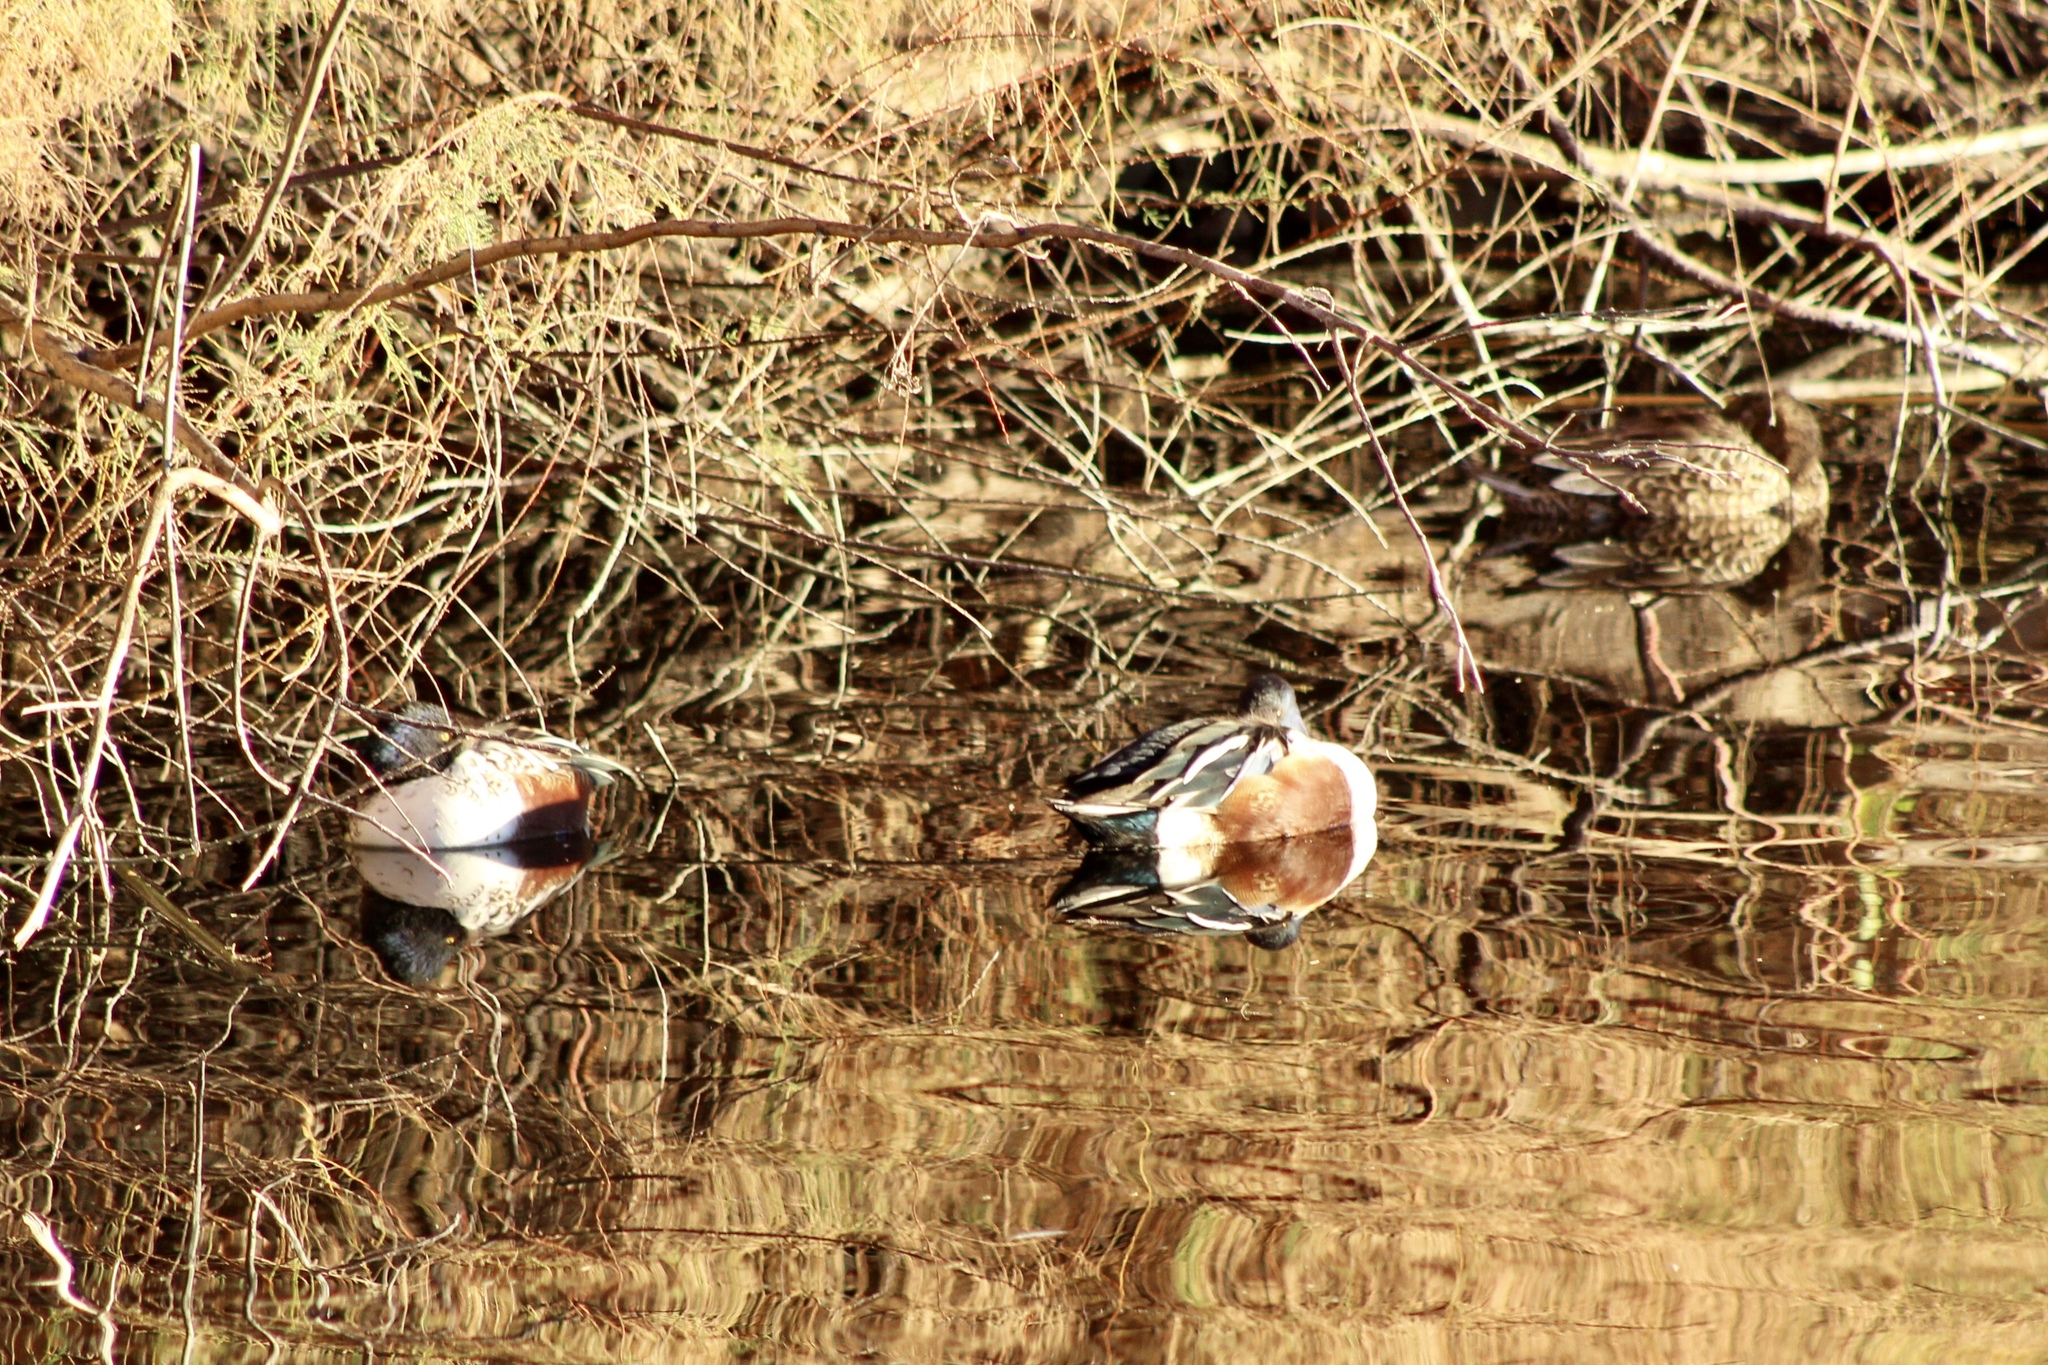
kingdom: Animalia
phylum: Chordata
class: Aves
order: Anseriformes
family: Anatidae
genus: Spatula
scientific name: Spatula clypeata
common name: Northern shoveler
